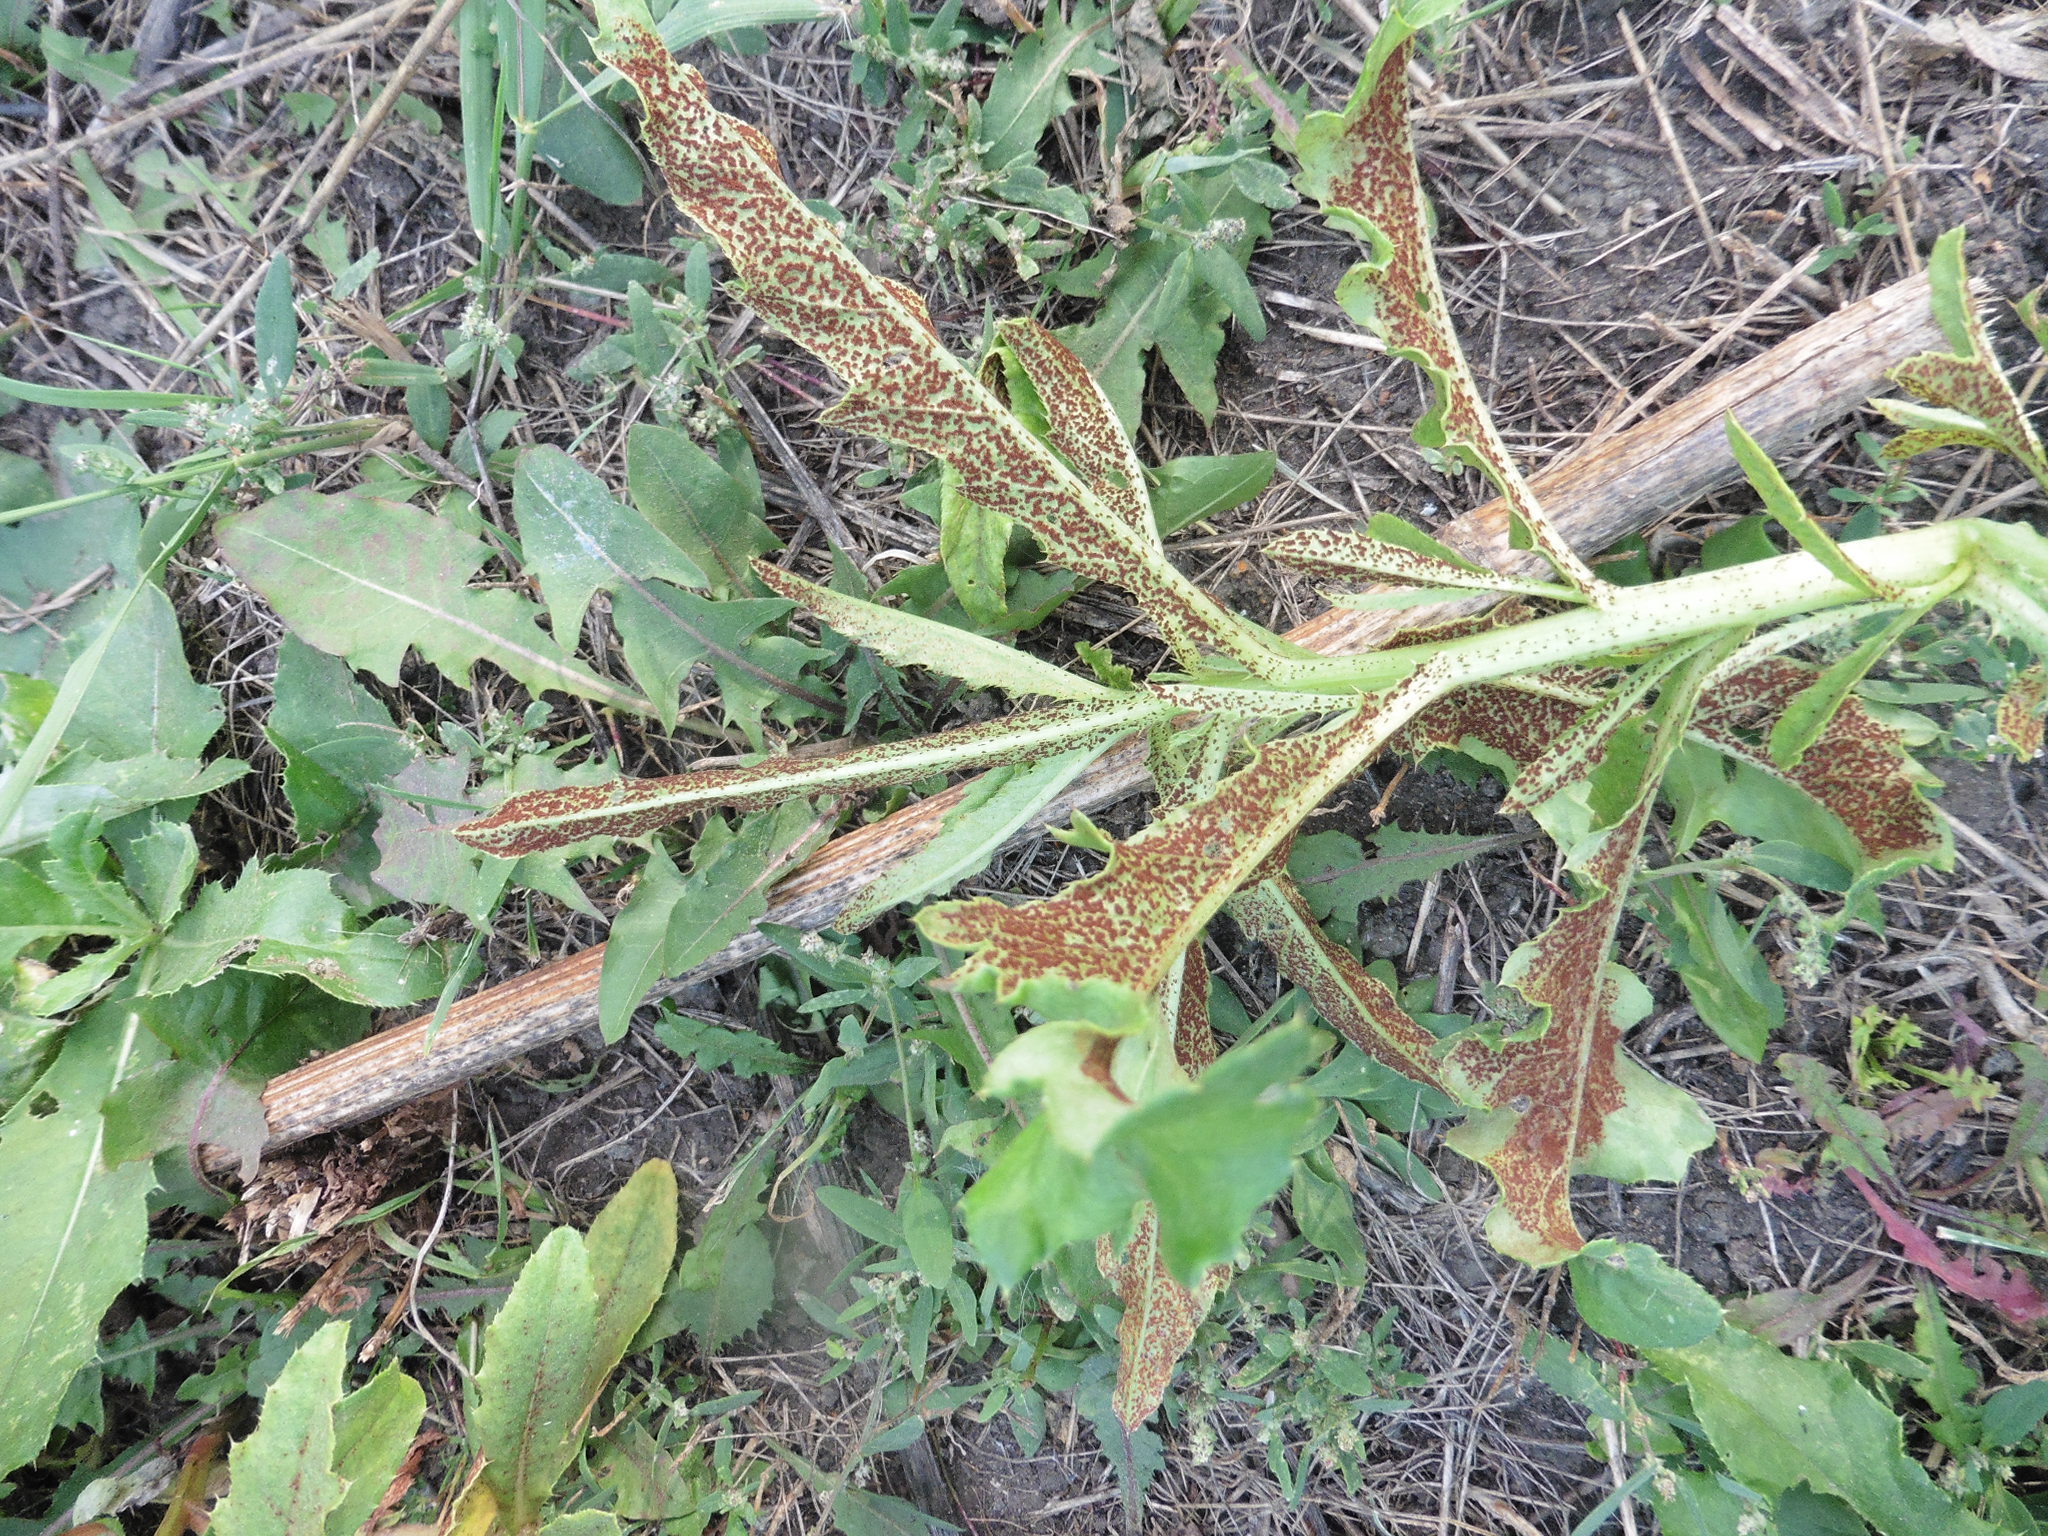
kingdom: Fungi
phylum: Basidiomycota
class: Pucciniomycetes
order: Pucciniales
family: Pucciniaceae
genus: Puccinia
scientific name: Puccinia suaveolens
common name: Thistle rust
